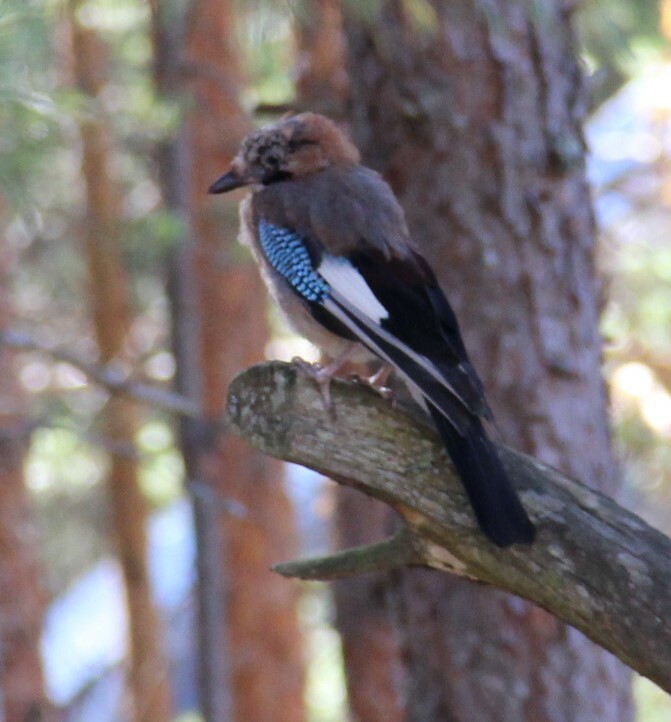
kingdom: Animalia
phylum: Chordata
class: Aves
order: Passeriformes
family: Corvidae
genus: Garrulus
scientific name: Garrulus glandarius
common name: Eurasian jay
